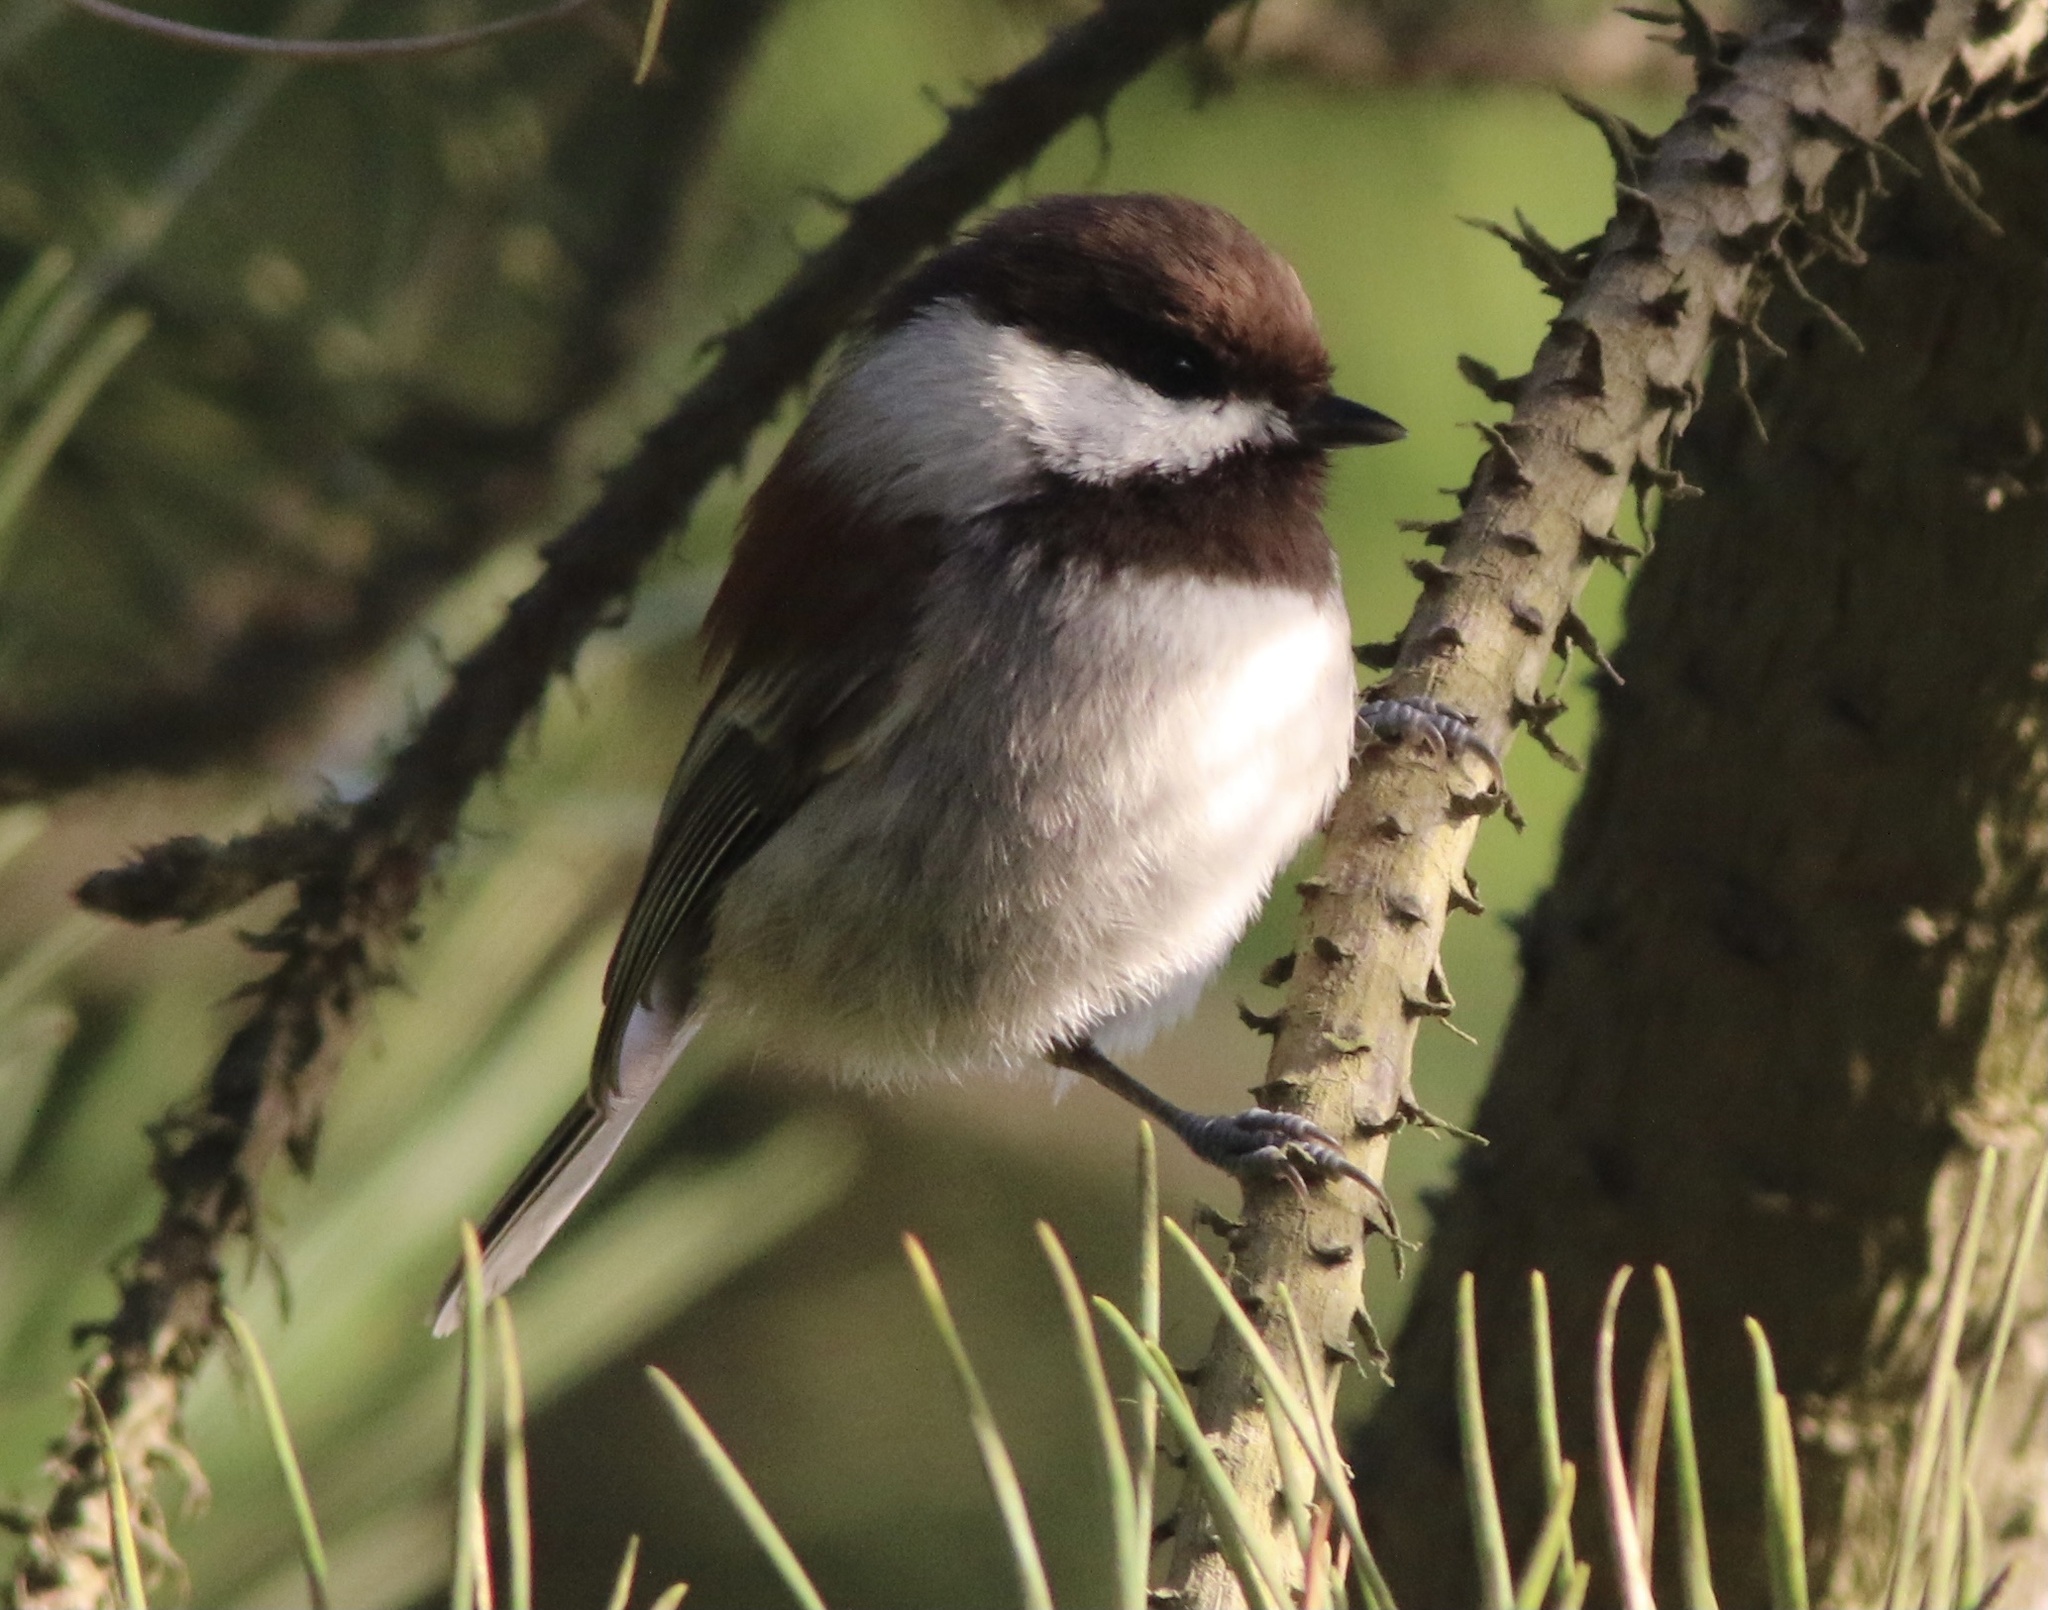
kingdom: Animalia
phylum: Chordata
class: Aves
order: Passeriformes
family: Paridae
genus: Poecile
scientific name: Poecile rufescens
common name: Chestnut-backed chickadee
